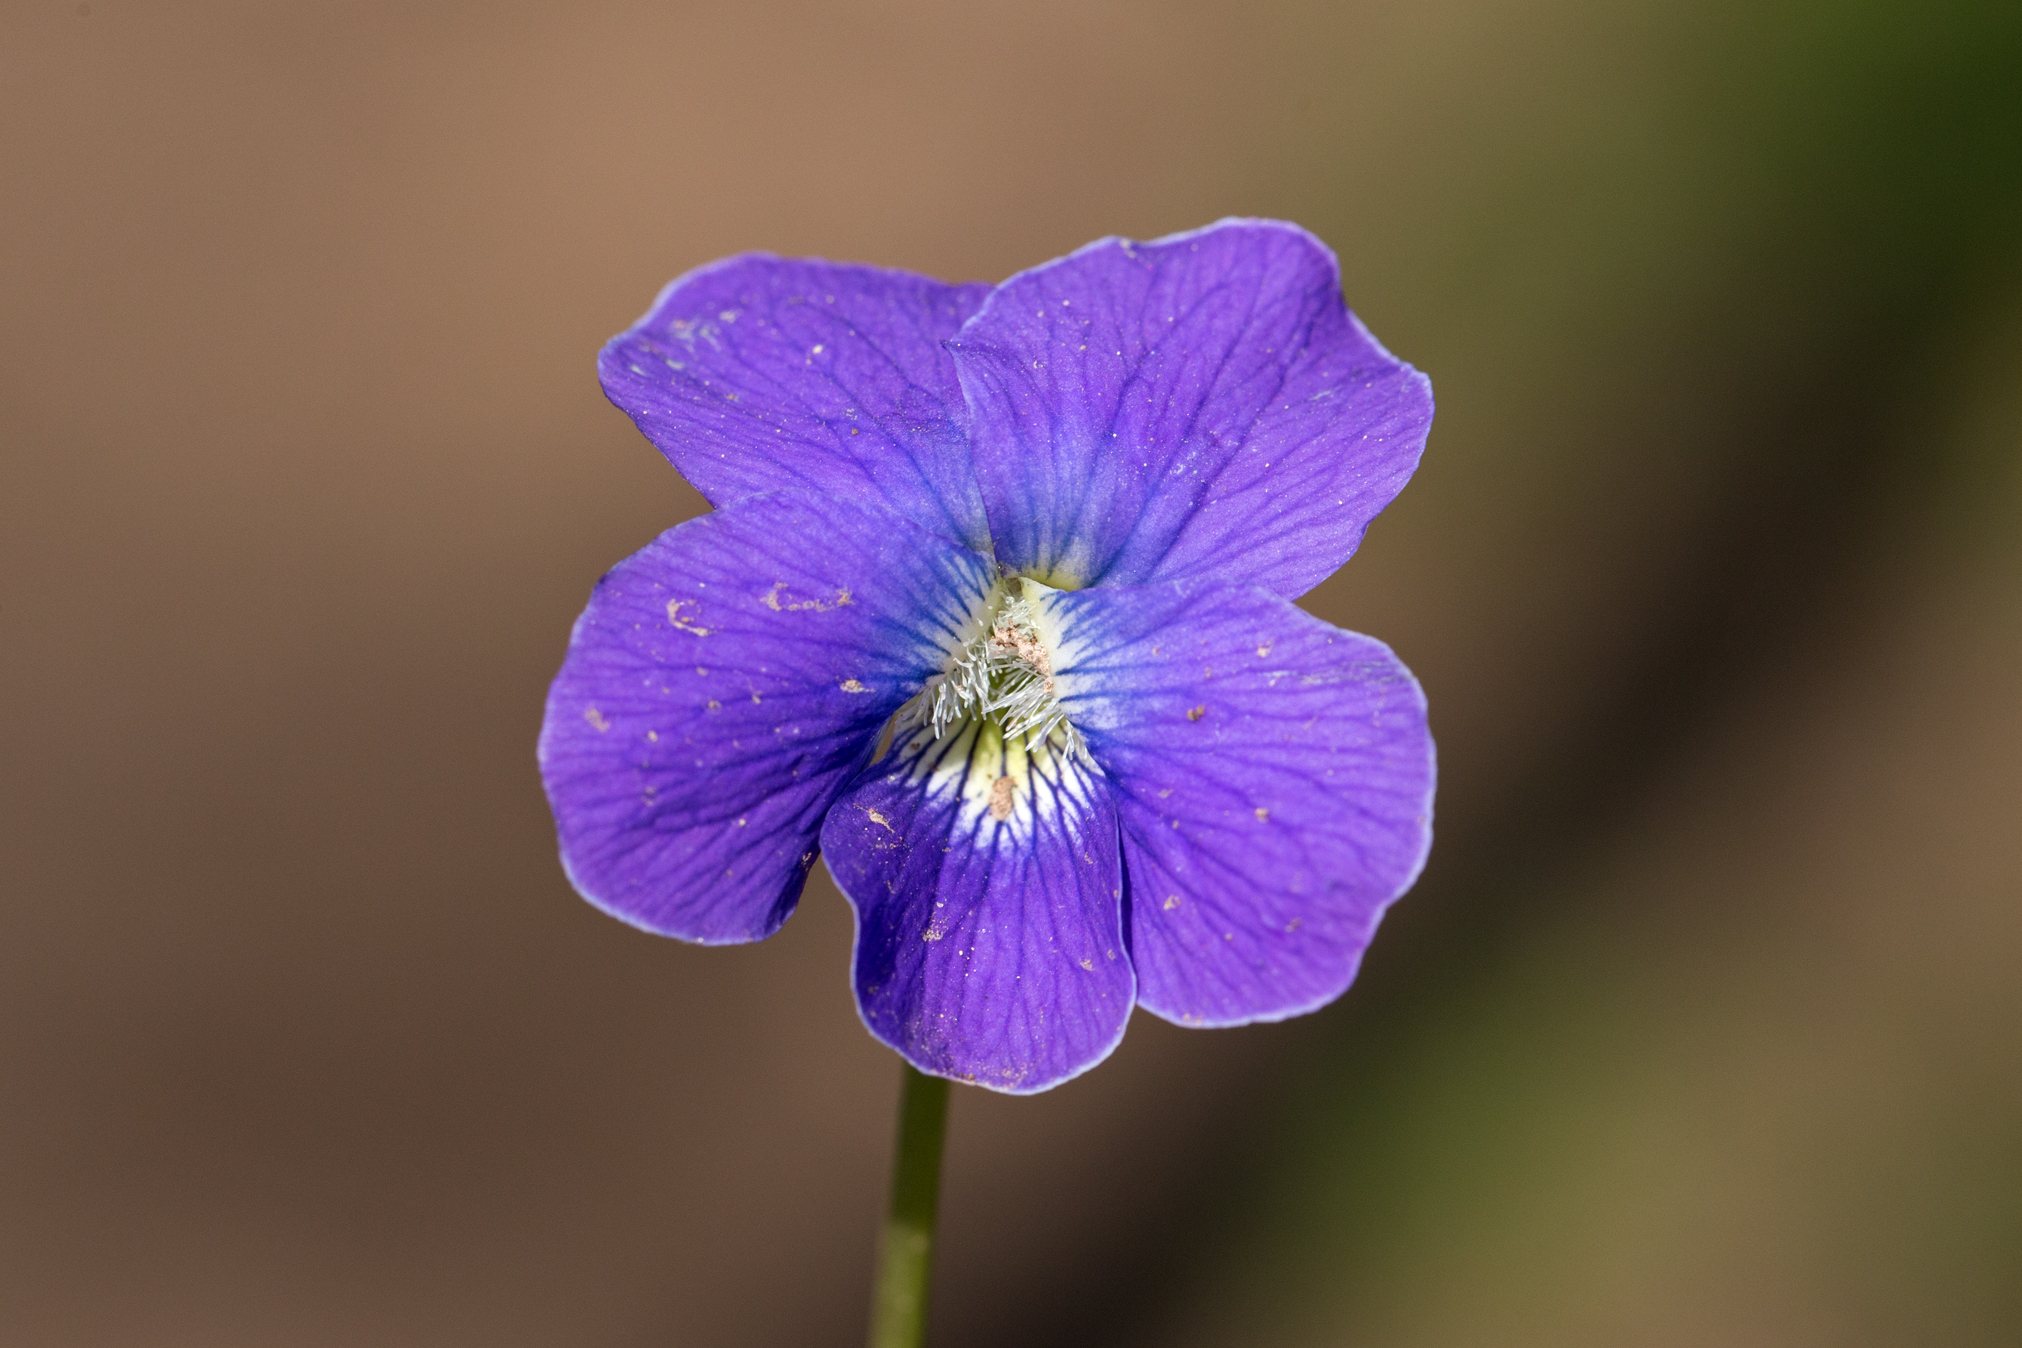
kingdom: Plantae
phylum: Tracheophyta
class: Magnoliopsida
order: Malpighiales
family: Violaceae
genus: Viola
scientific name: Viola sororia
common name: Dooryard violet
